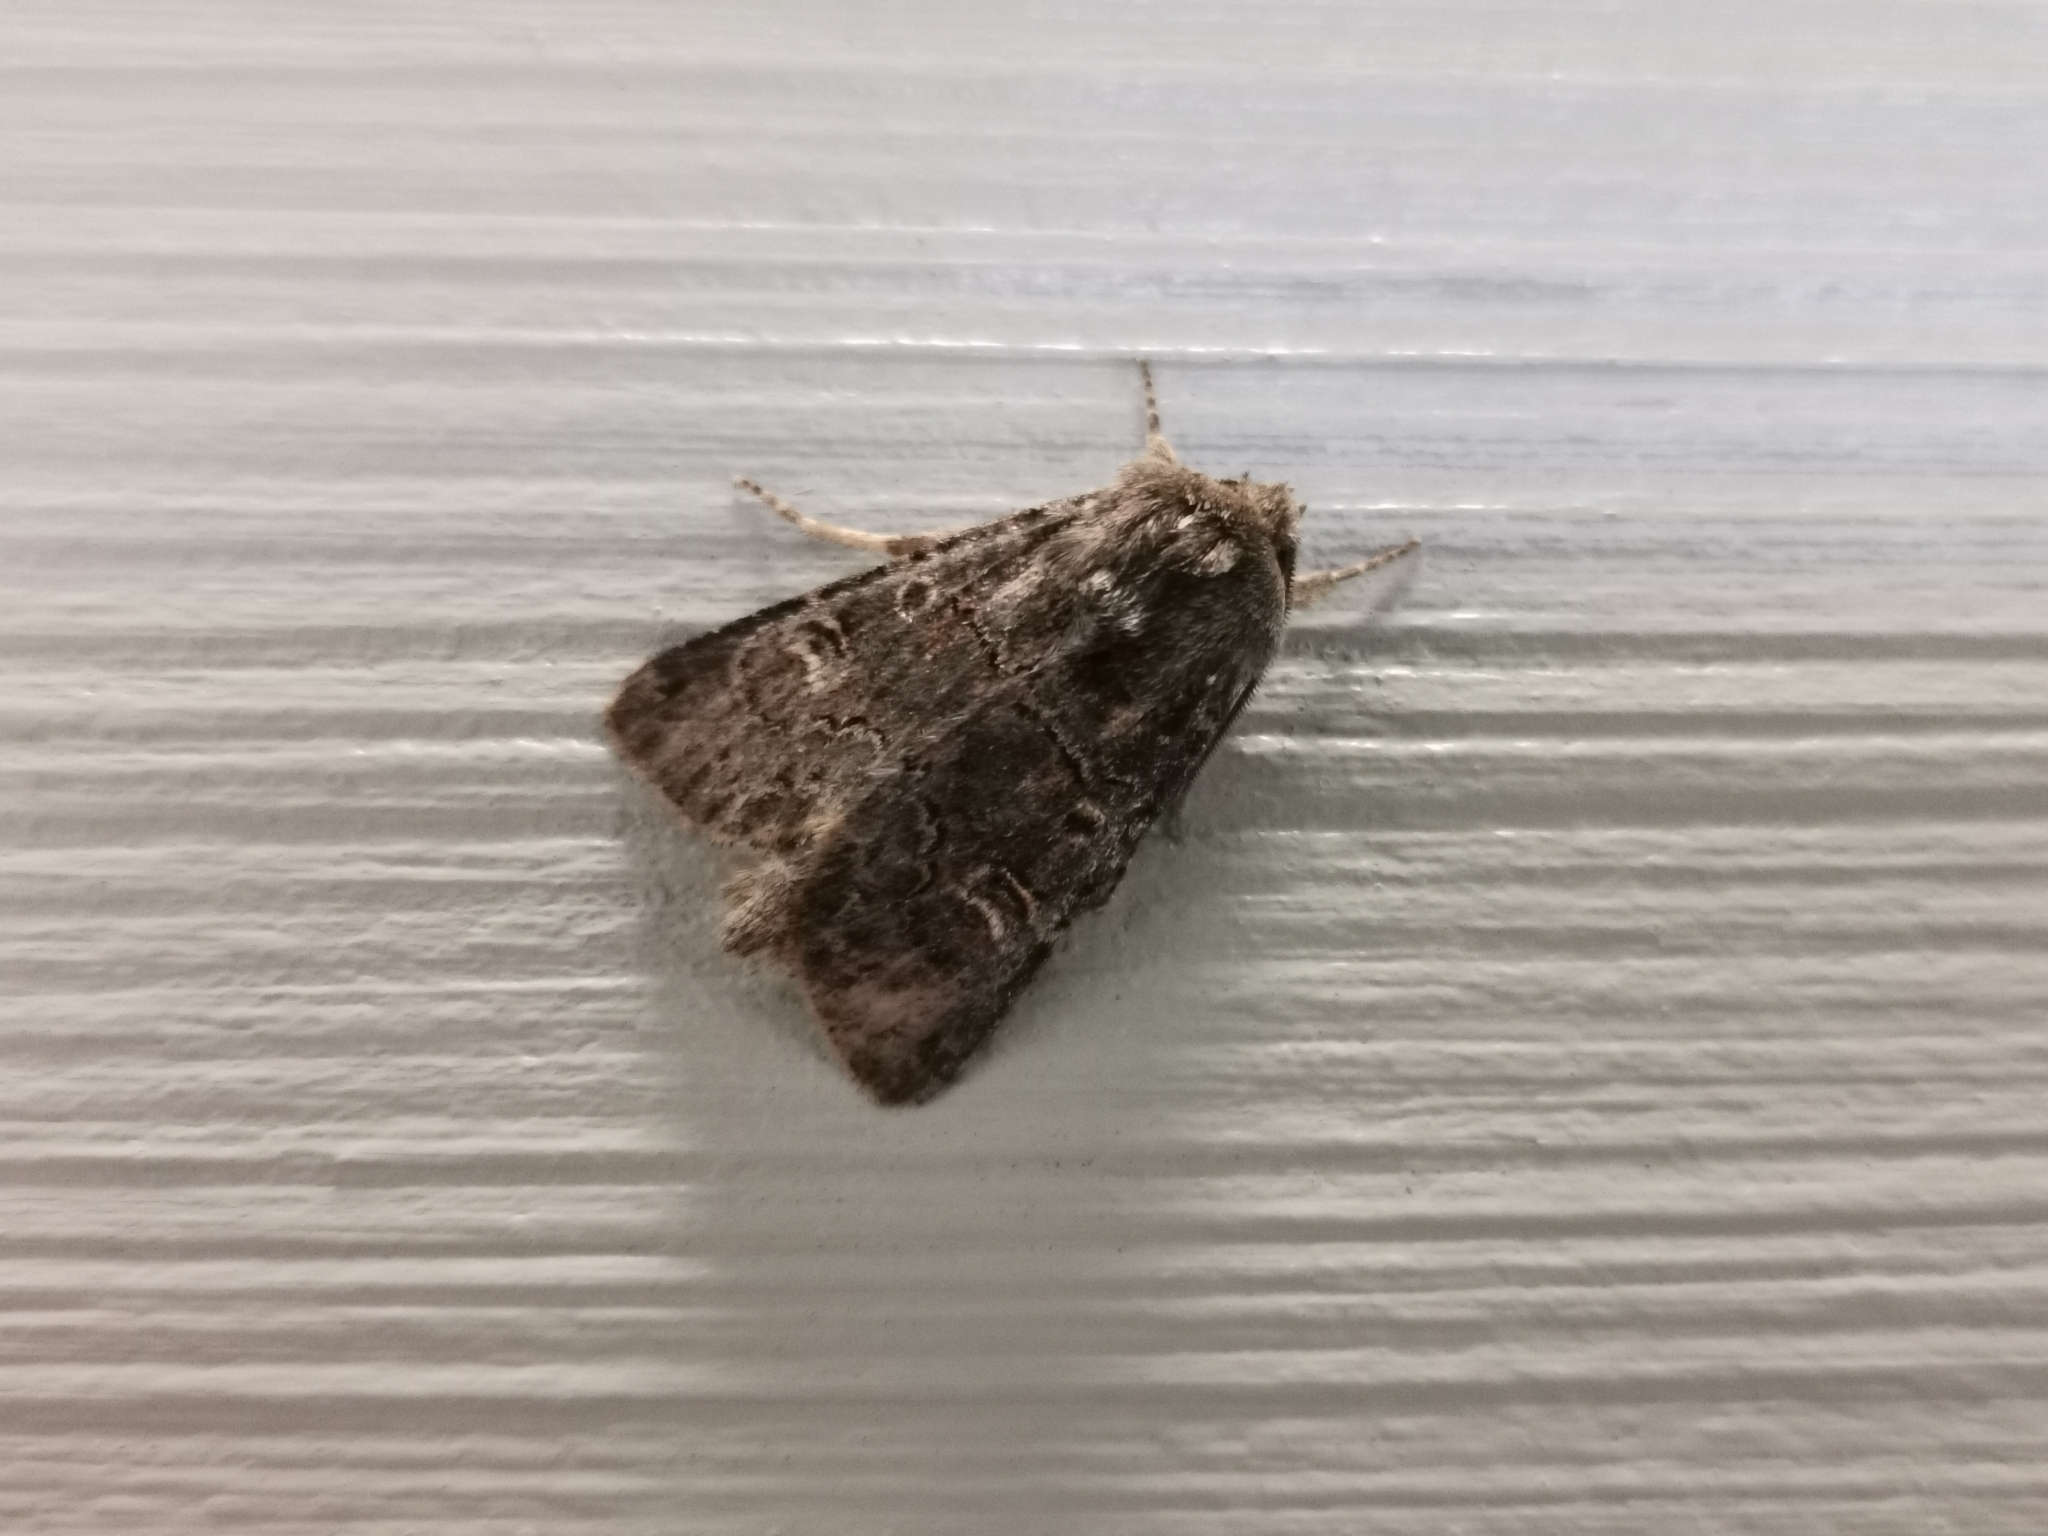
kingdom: Animalia
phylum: Arthropoda
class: Insecta
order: Lepidoptera
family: Noctuidae
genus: Tholera
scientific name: Tholera cespitis
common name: Hedge rustic
